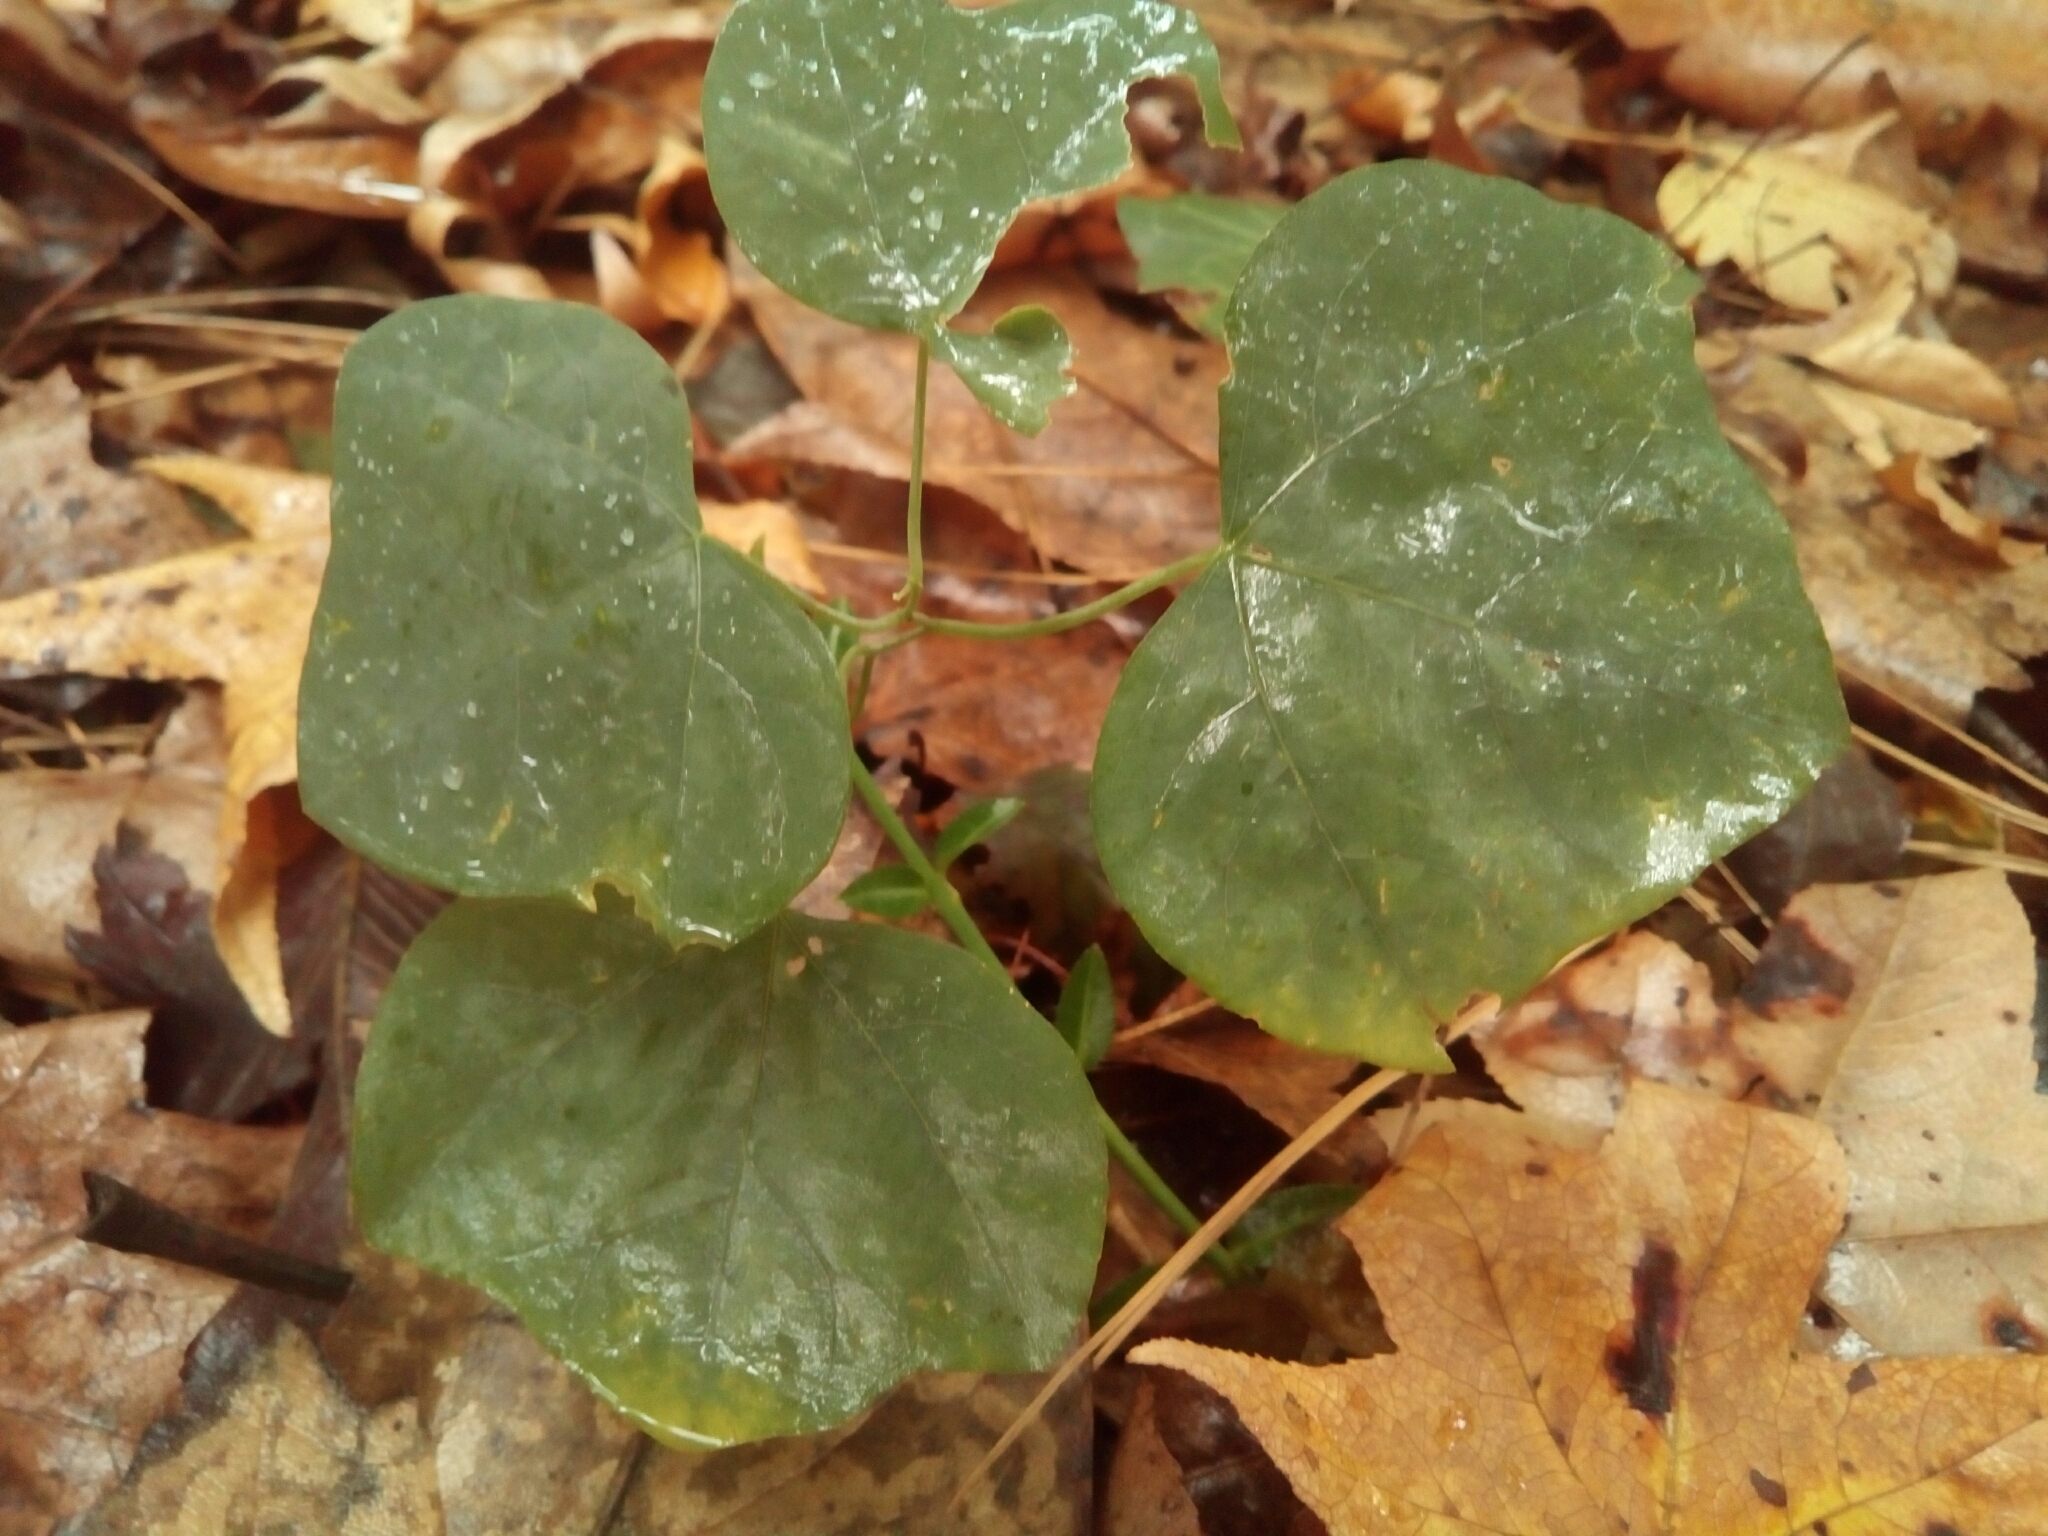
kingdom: Plantae
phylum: Tracheophyta
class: Magnoliopsida
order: Malpighiales
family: Passifloraceae
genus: Passiflora
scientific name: Passiflora lutea
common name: Yellow passionflower
